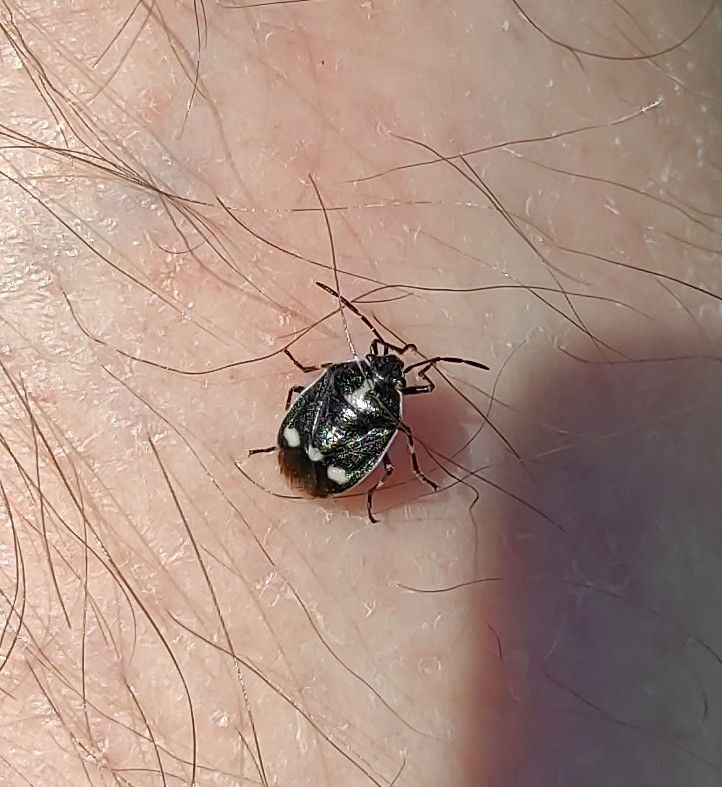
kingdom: Animalia
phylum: Arthropoda
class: Insecta
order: Hemiptera
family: Pentatomidae
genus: Eurydema
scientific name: Eurydema oleracea
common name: Cabbage bug
